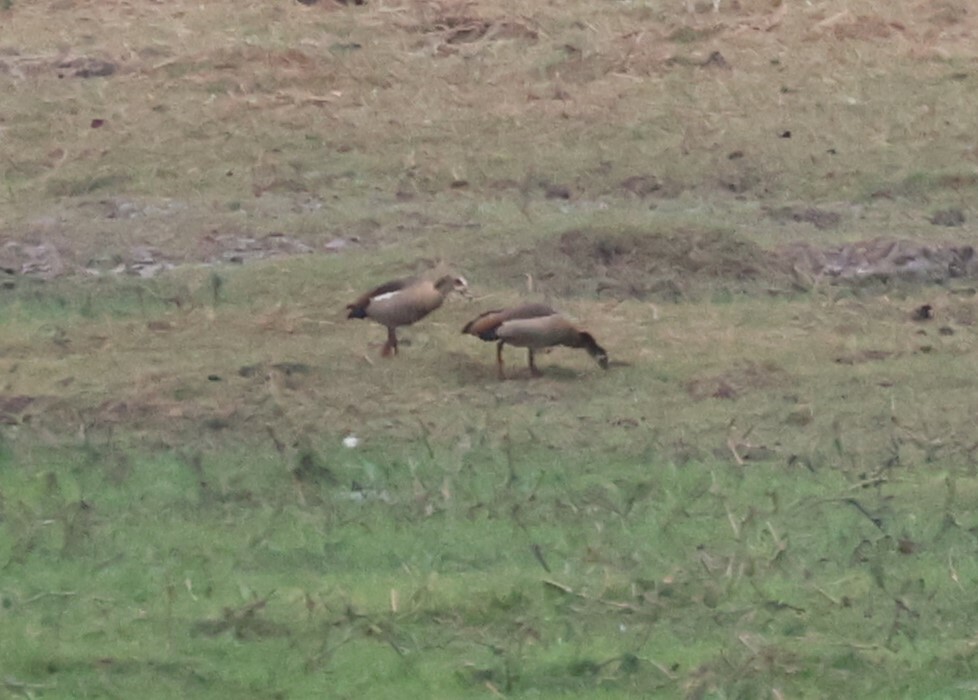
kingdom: Animalia
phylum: Chordata
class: Aves
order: Anseriformes
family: Anatidae
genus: Alopochen
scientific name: Alopochen aegyptiaca
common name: Egyptian goose
